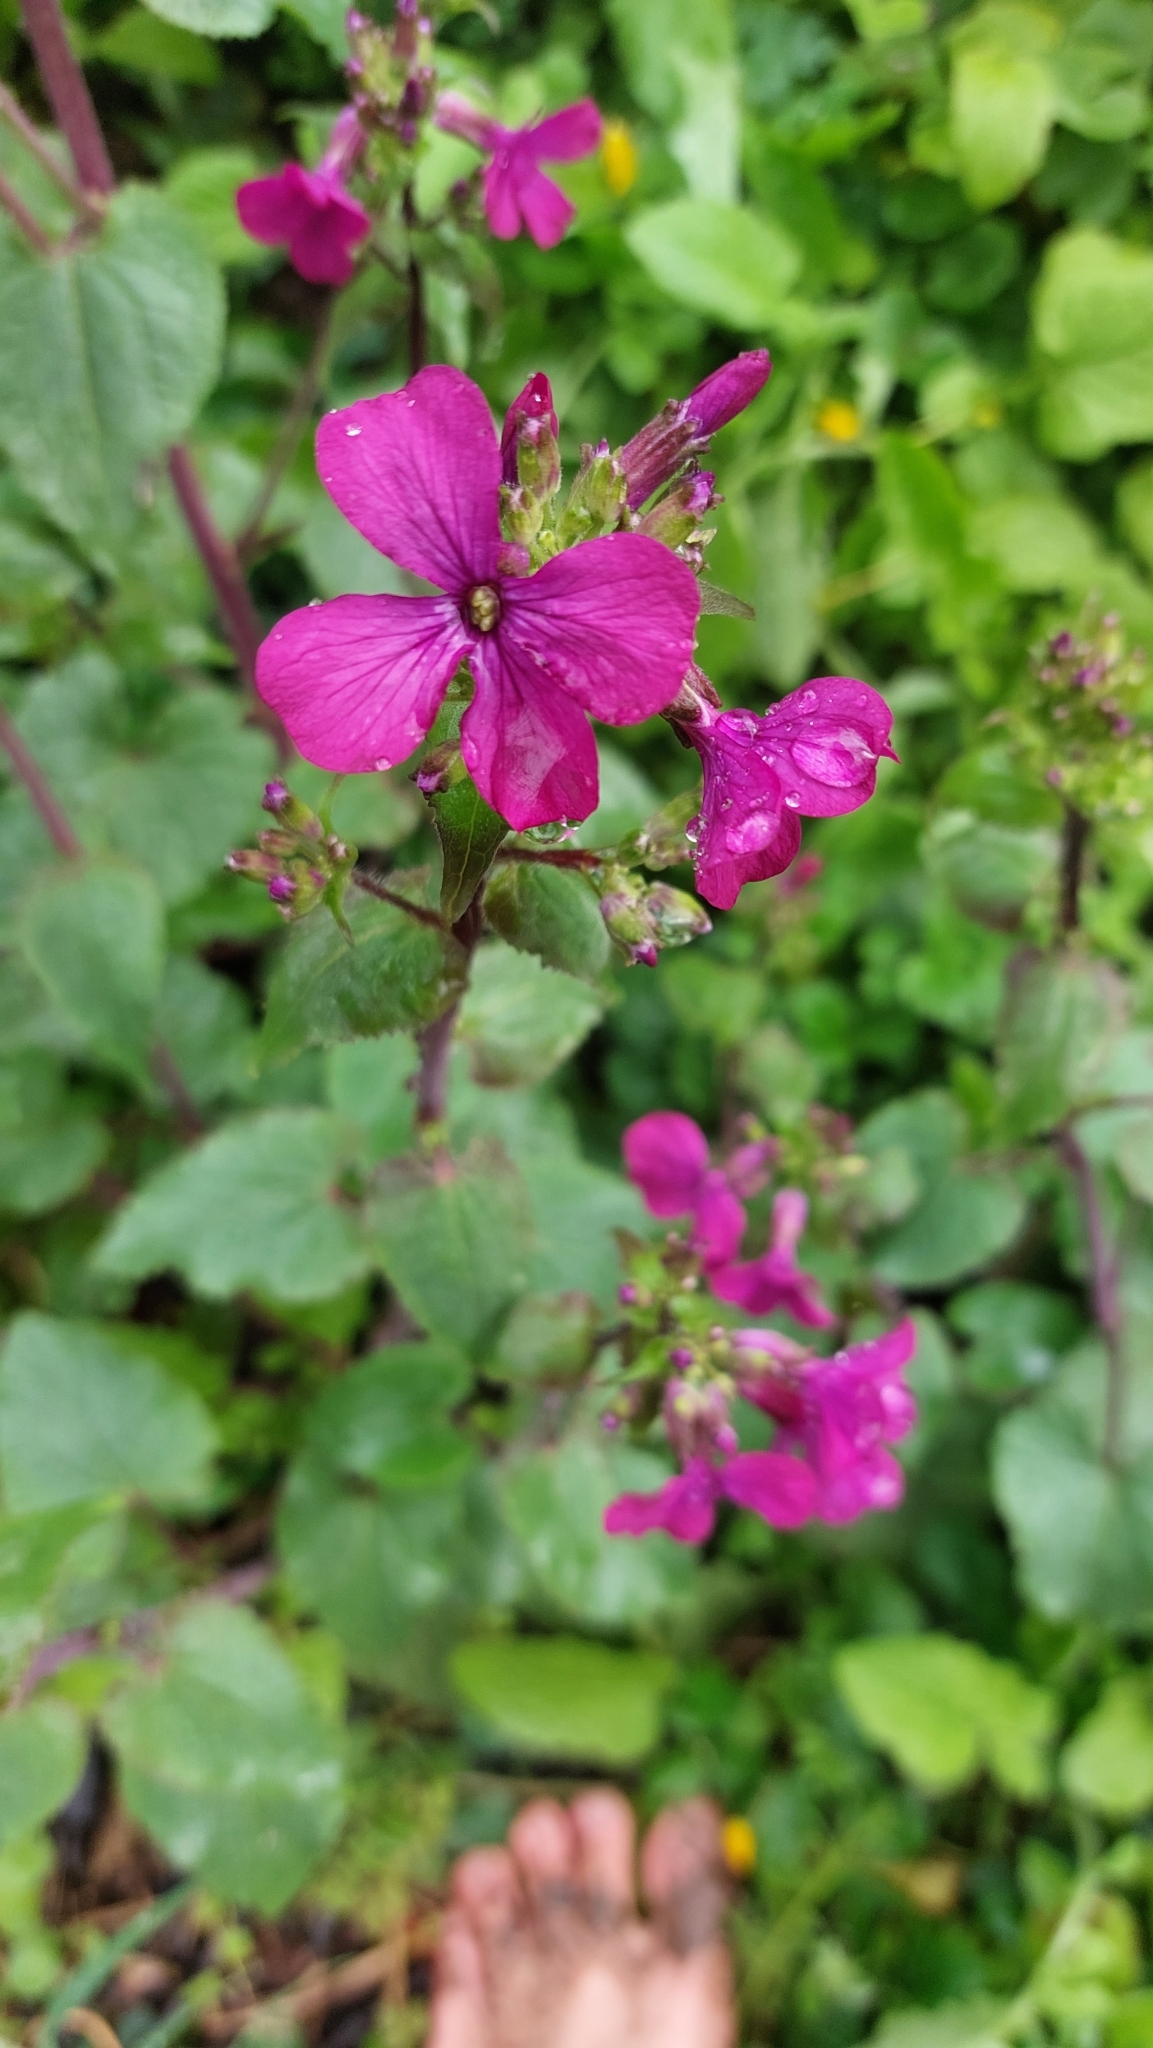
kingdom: Plantae
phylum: Tracheophyta
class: Magnoliopsida
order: Brassicales
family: Brassicaceae
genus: Lunaria
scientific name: Lunaria annua
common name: Honesty
